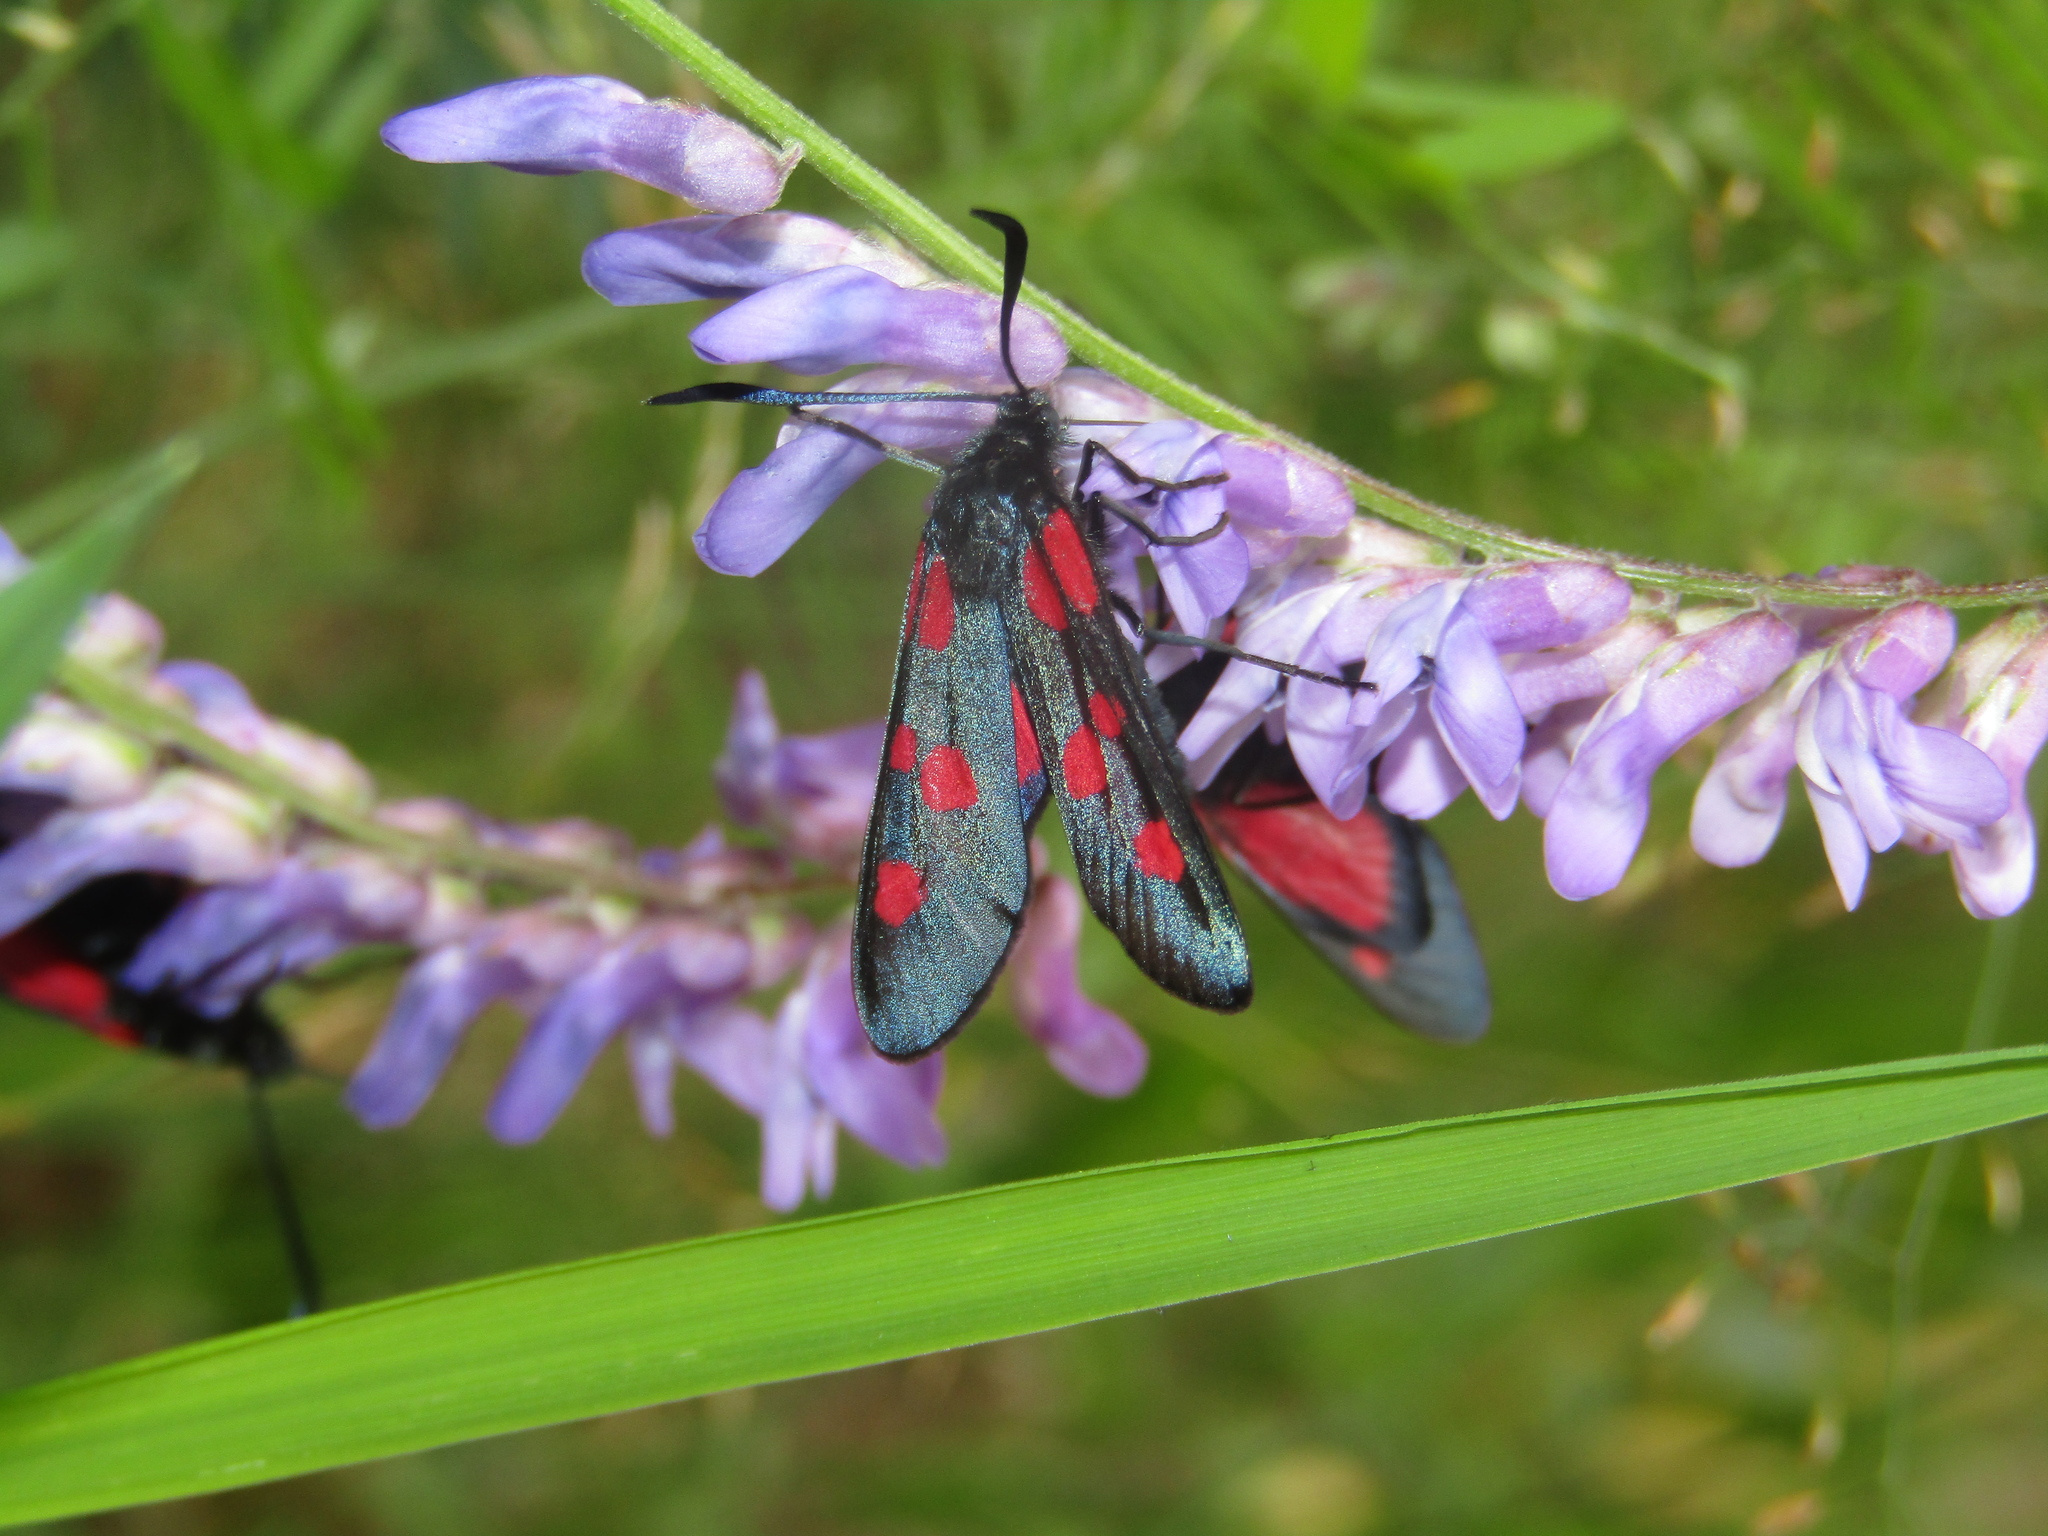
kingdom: Animalia
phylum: Arthropoda
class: Insecta
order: Lepidoptera
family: Zygaenidae
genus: Zygaena
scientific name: Zygaena lonicerae
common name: Narrow-bordered five-spot burnet
